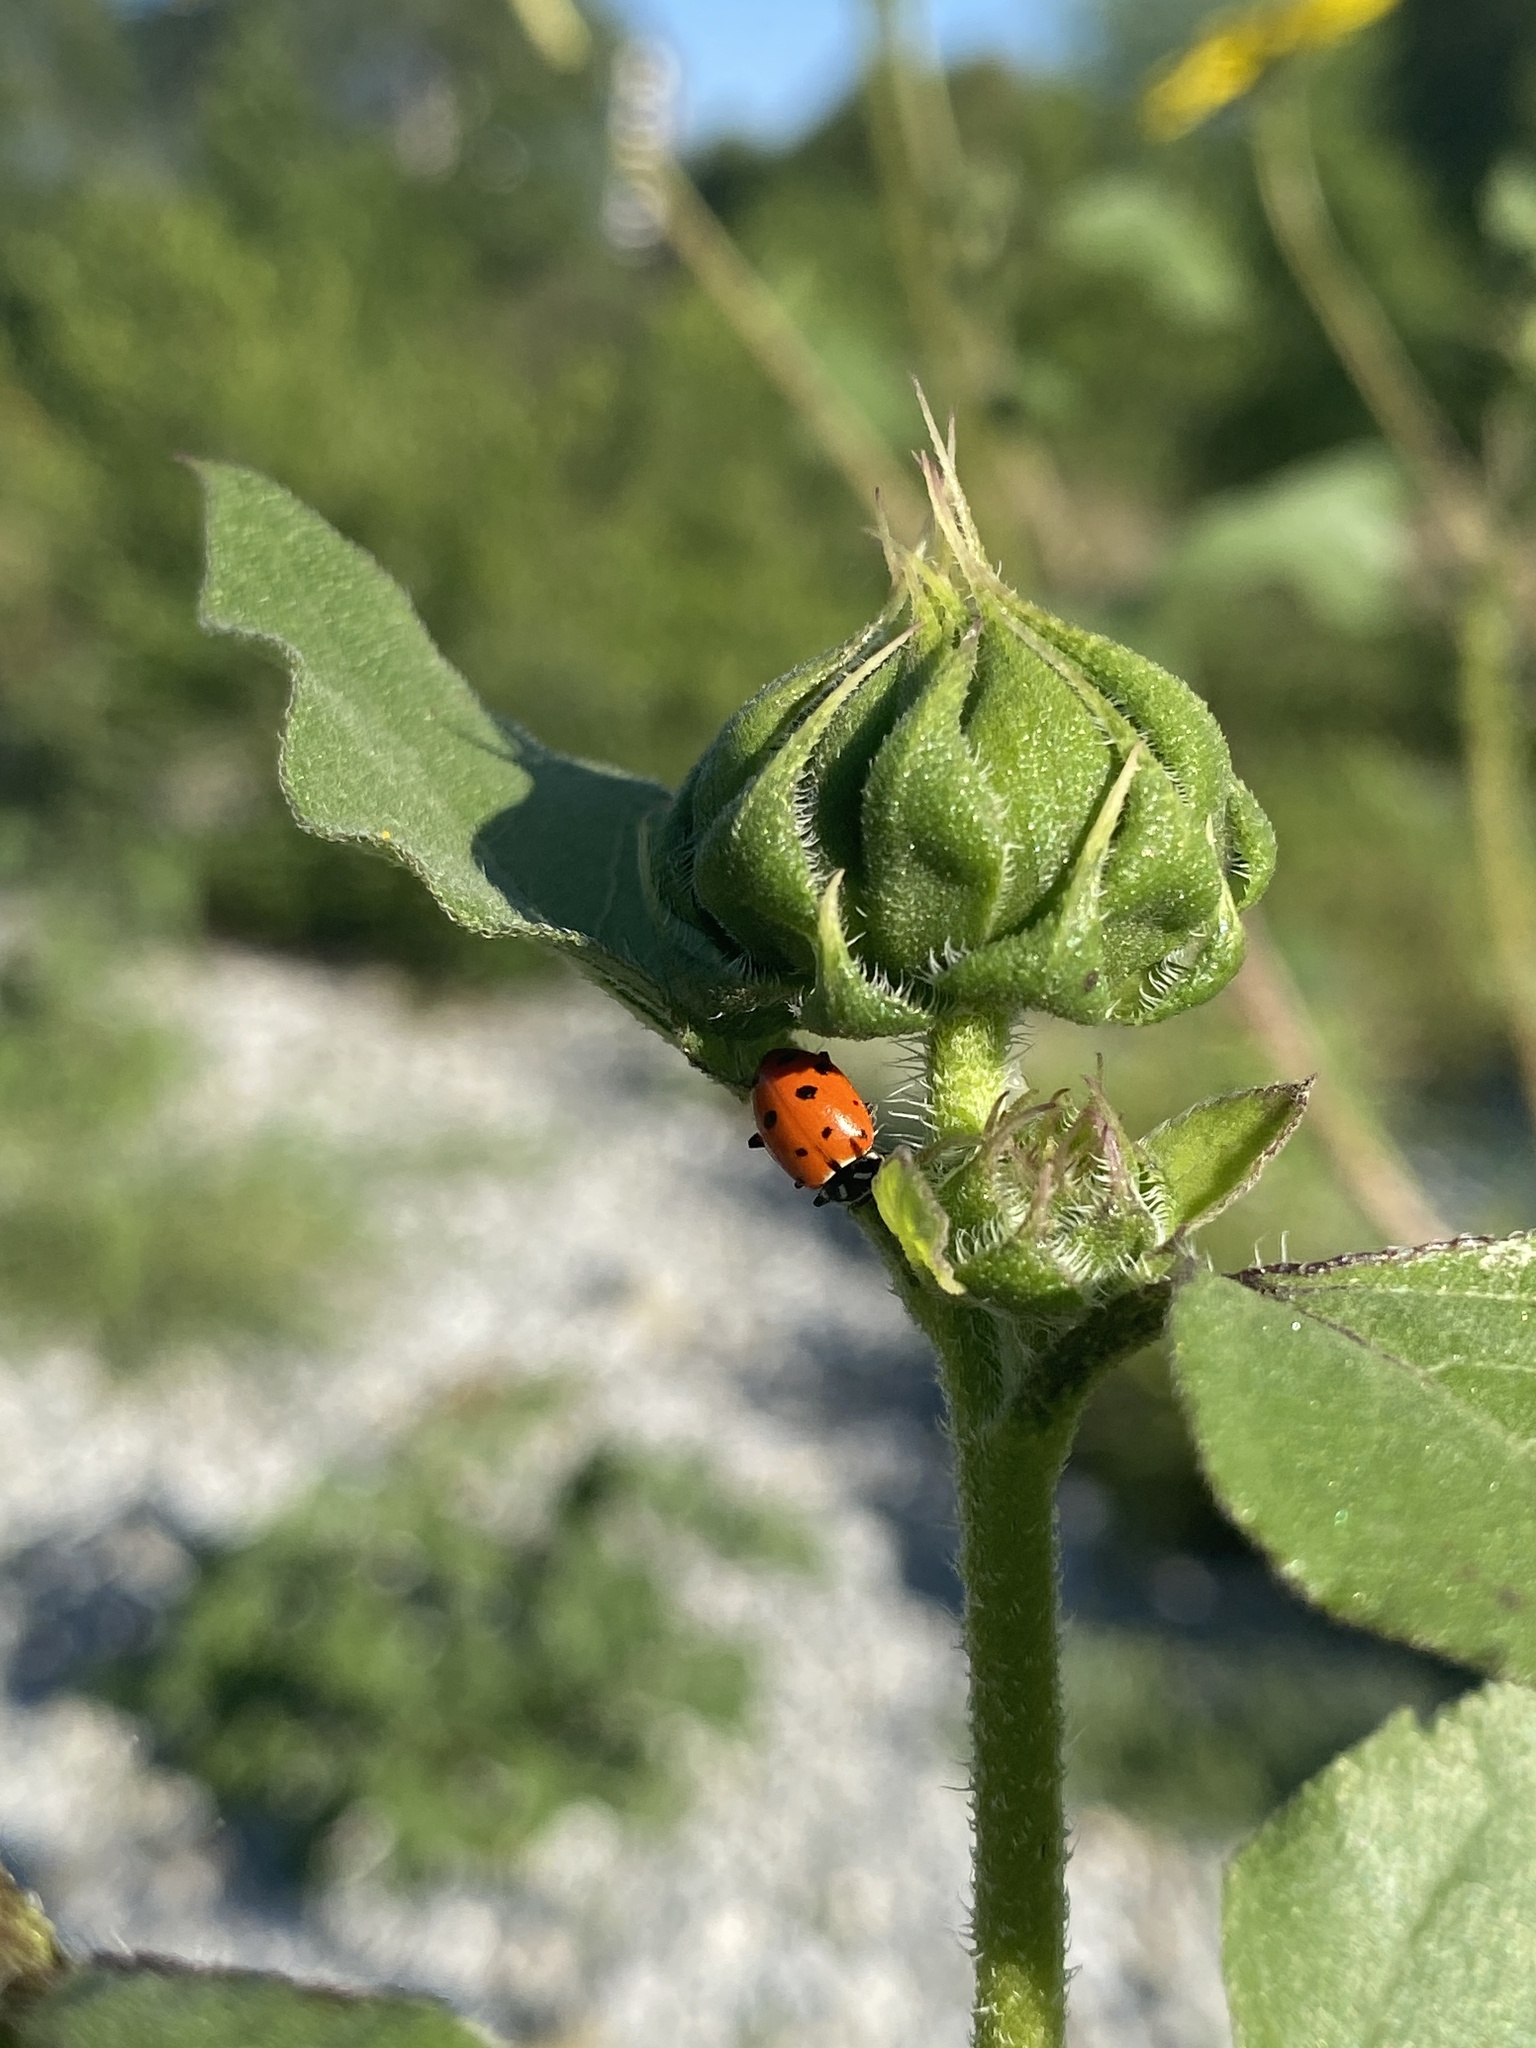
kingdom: Animalia
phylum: Arthropoda
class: Insecta
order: Coleoptera
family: Coccinellidae
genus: Hippodamia
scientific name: Hippodamia convergens
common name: Convergent lady beetle
